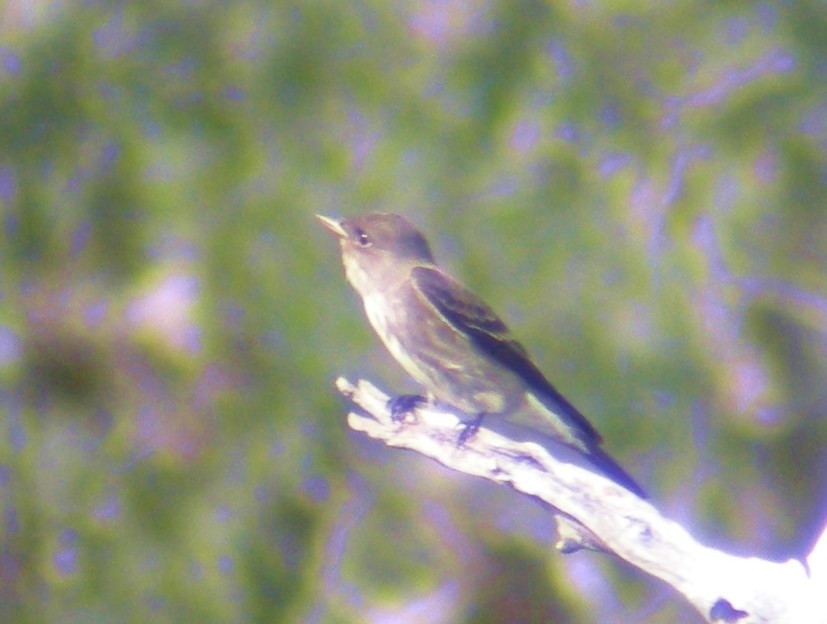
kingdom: Animalia
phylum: Chordata
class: Aves
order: Passeriformes
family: Tyrannidae
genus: Contopus
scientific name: Contopus cooperi
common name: Olive-sided flycatcher
